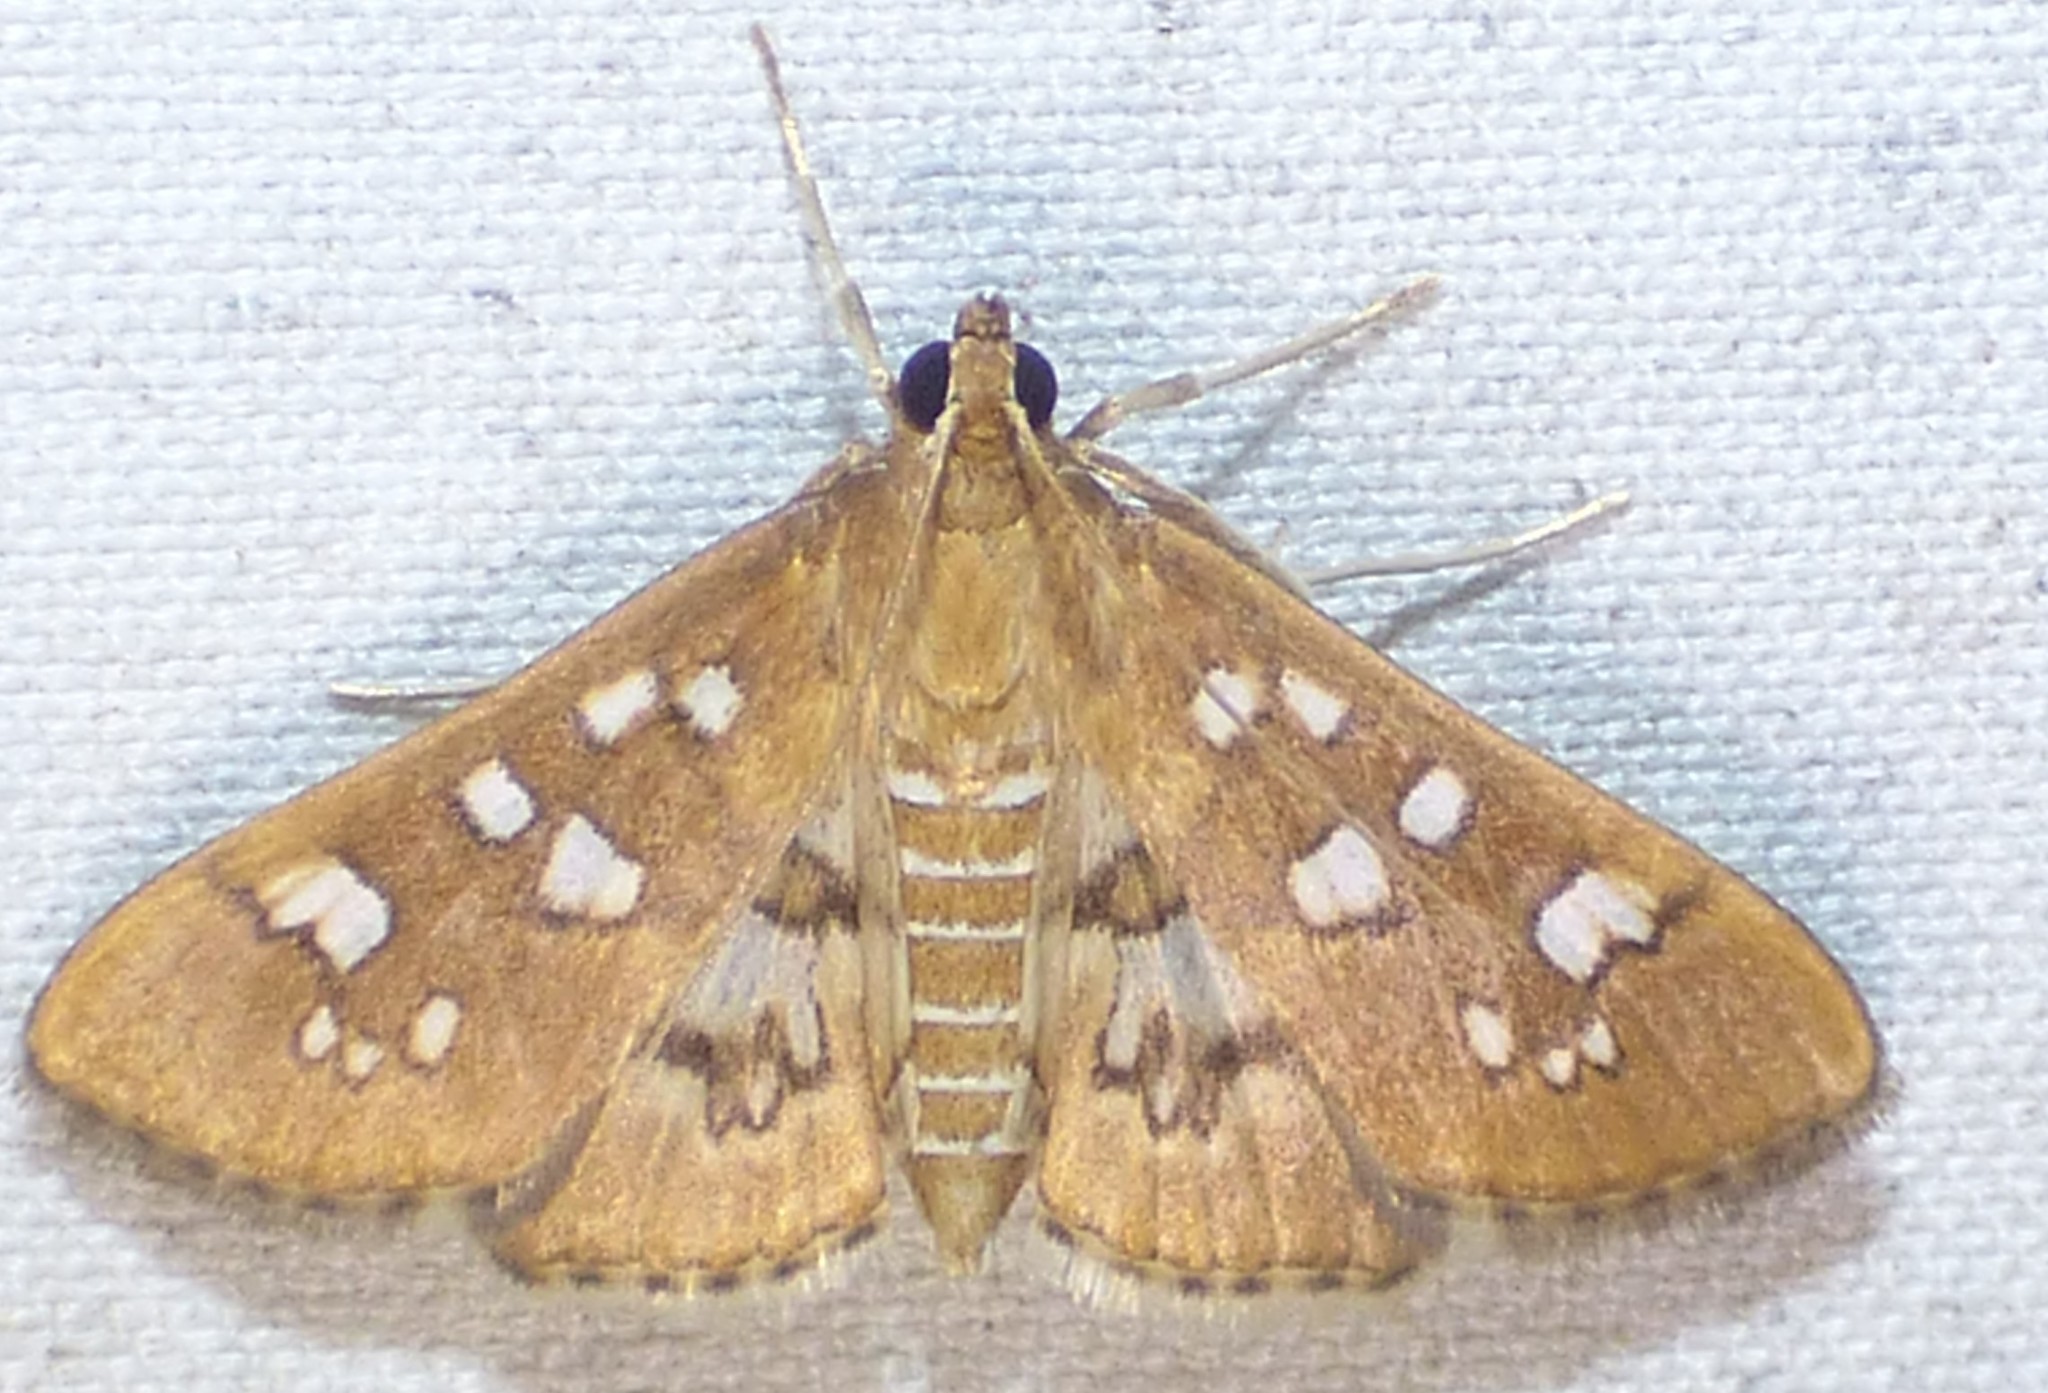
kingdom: Animalia
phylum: Arthropoda
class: Insecta
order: Lepidoptera
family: Crambidae
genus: Samea
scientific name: Samea baccatalis
